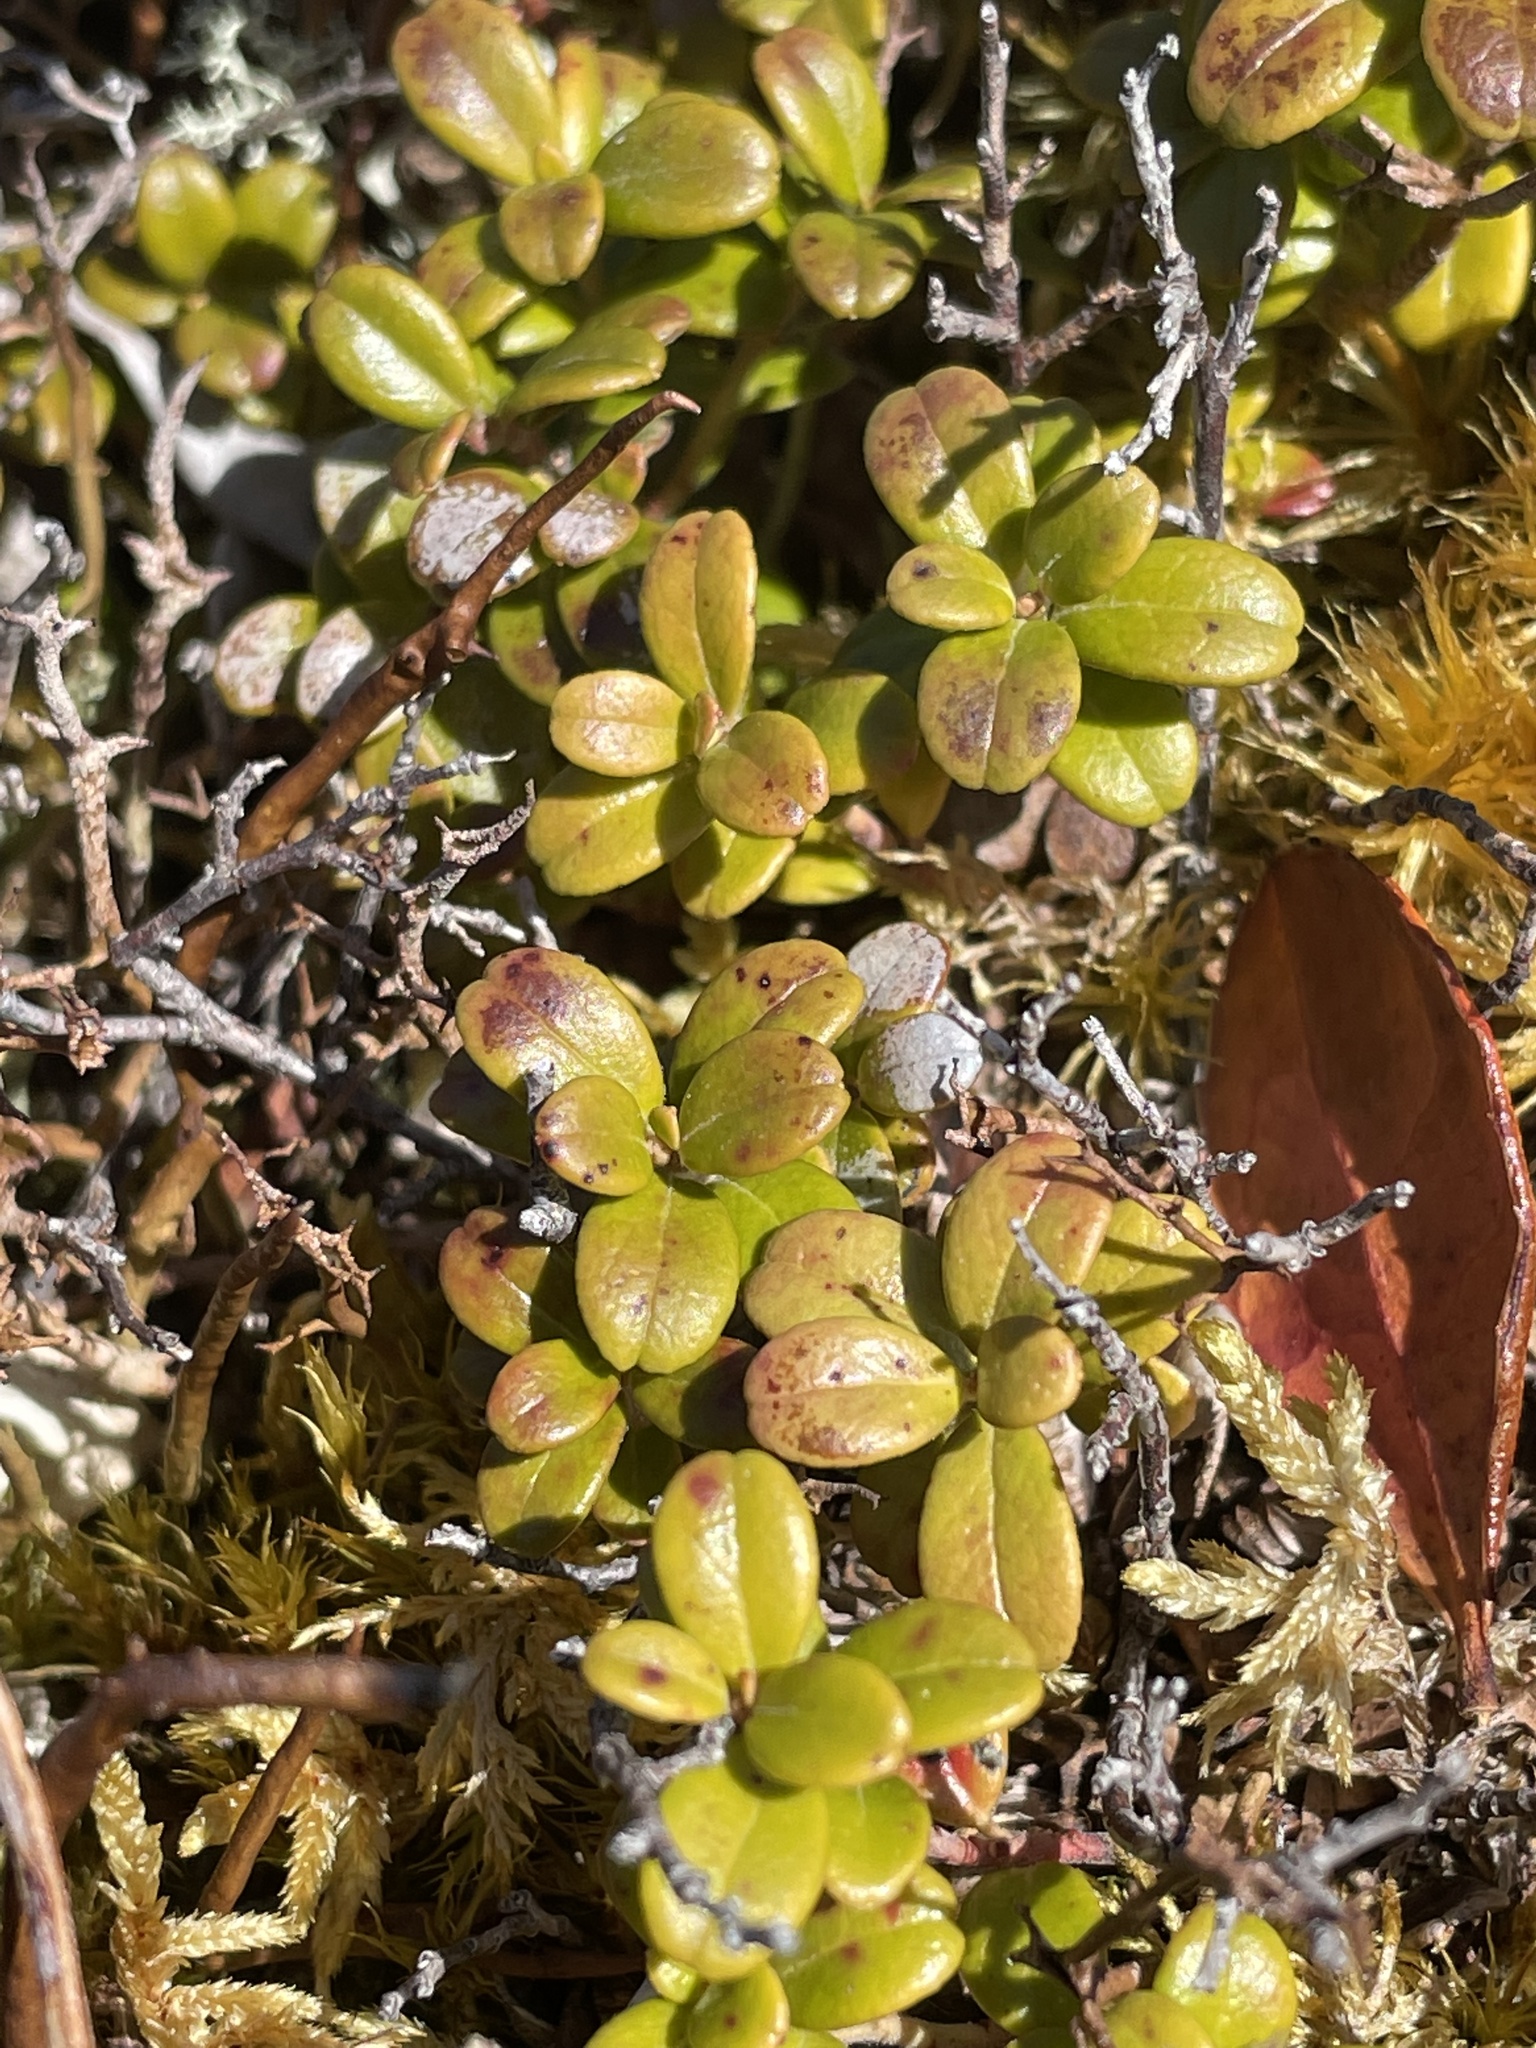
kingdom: Plantae
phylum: Tracheophyta
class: Magnoliopsida
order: Ericales
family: Ericaceae
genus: Vaccinium
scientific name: Vaccinium vitis-idaea
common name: Cowberry
